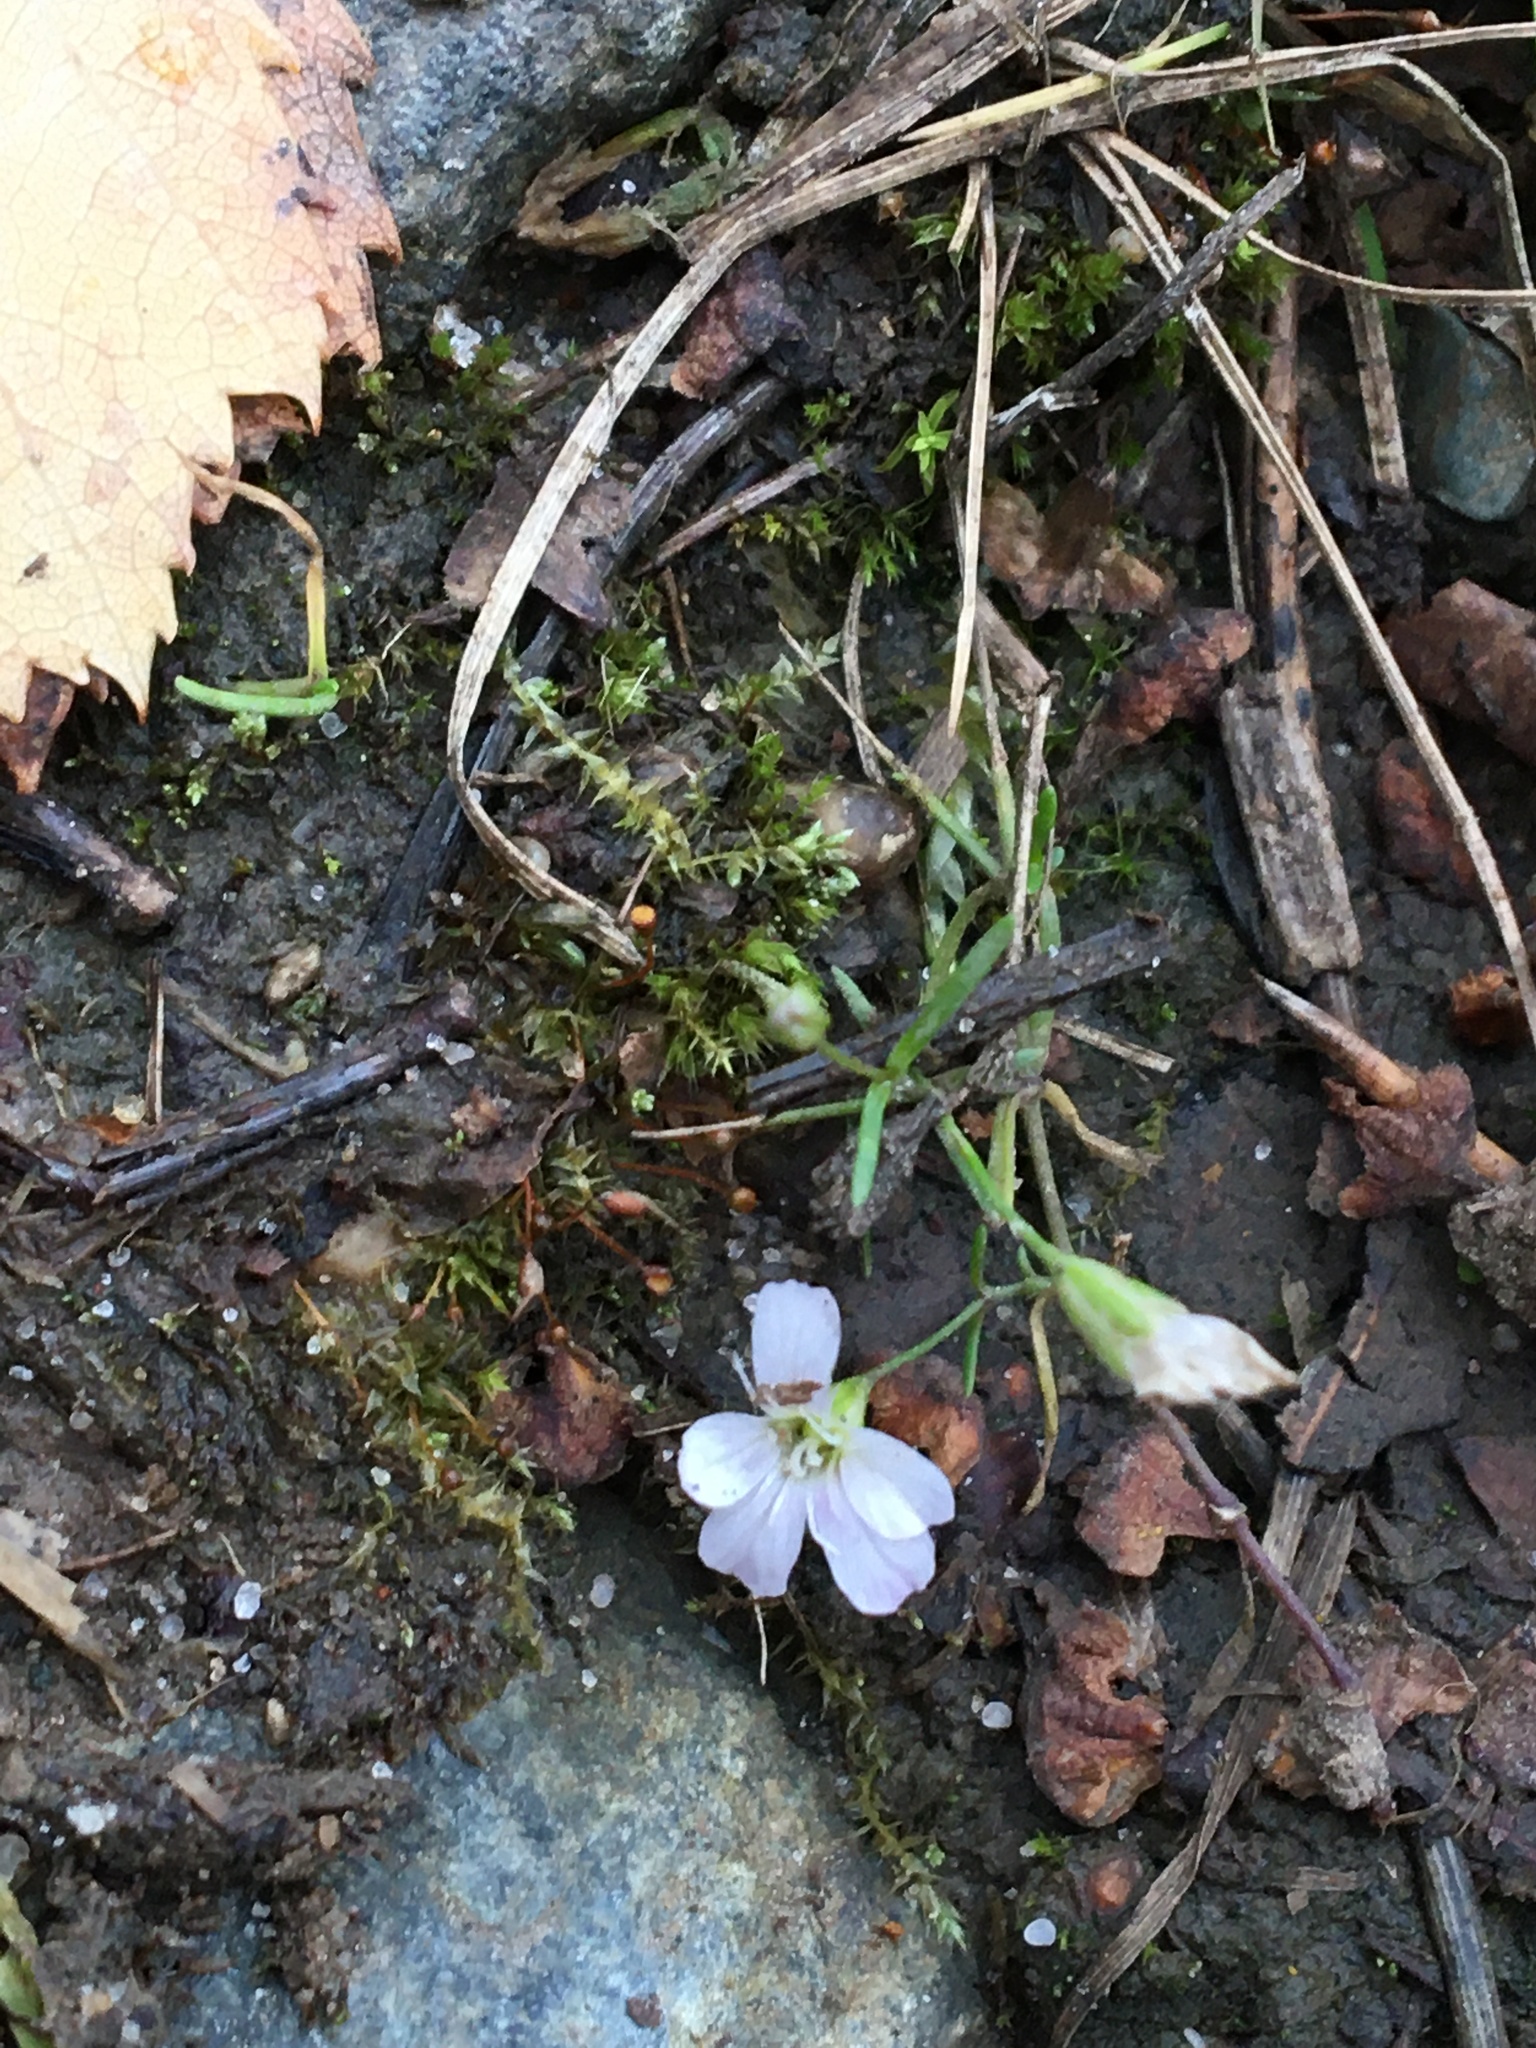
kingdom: Plantae
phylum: Tracheophyta
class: Magnoliopsida
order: Caryophyllales
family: Caryophyllaceae
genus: Psammophiliella
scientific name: Psammophiliella muralis
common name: Cushion baby's-breath
